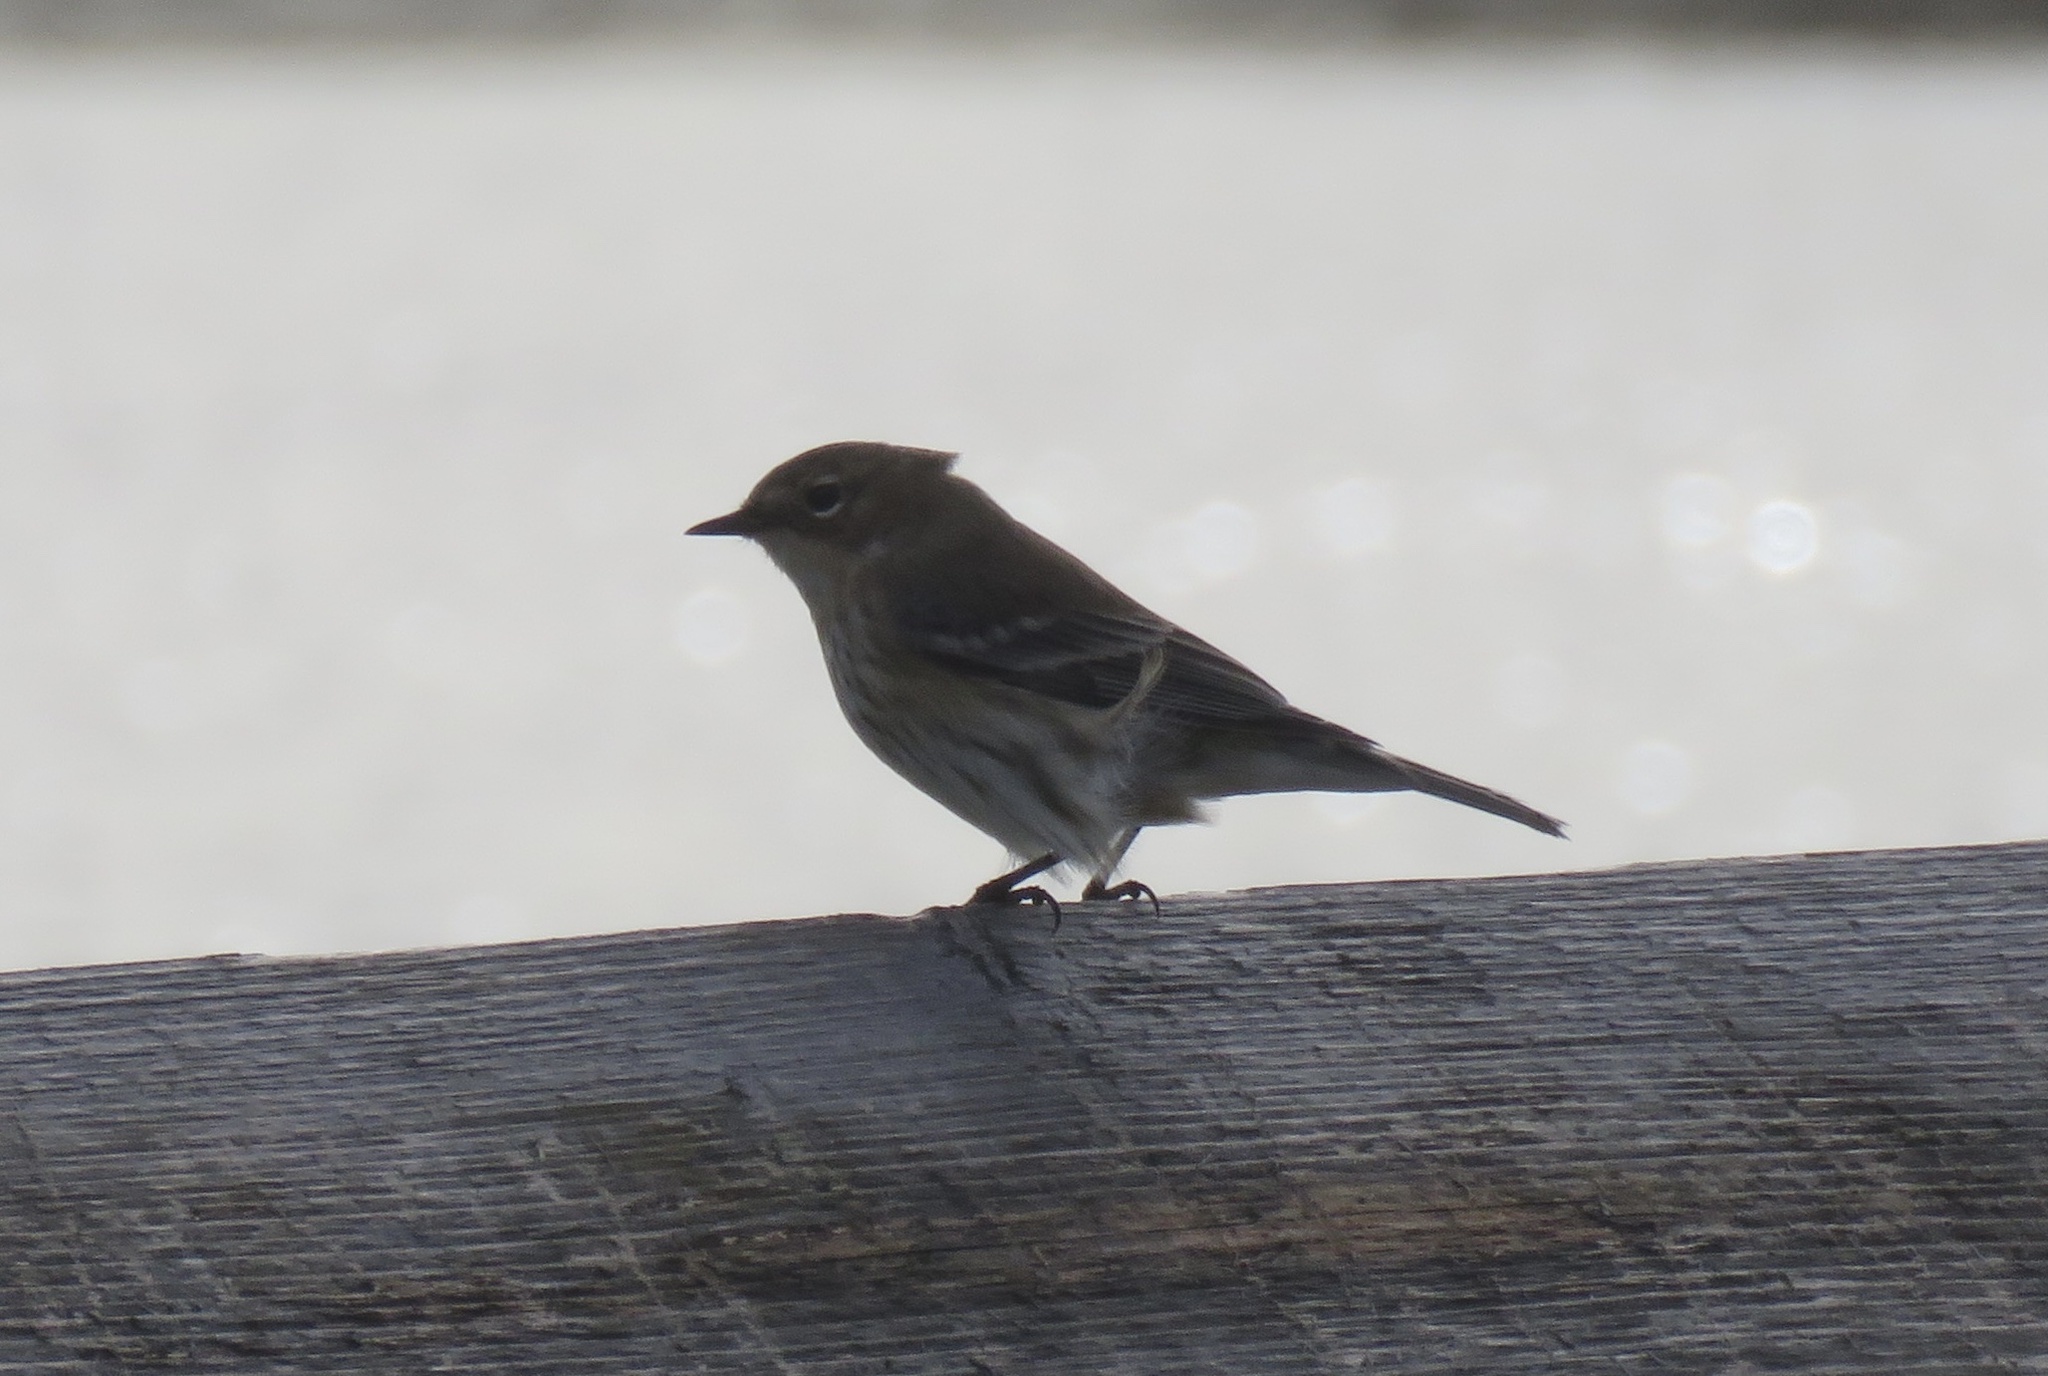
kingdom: Animalia
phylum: Chordata
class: Aves
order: Passeriformes
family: Parulidae
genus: Setophaga
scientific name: Setophaga coronata
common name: Myrtle warbler
